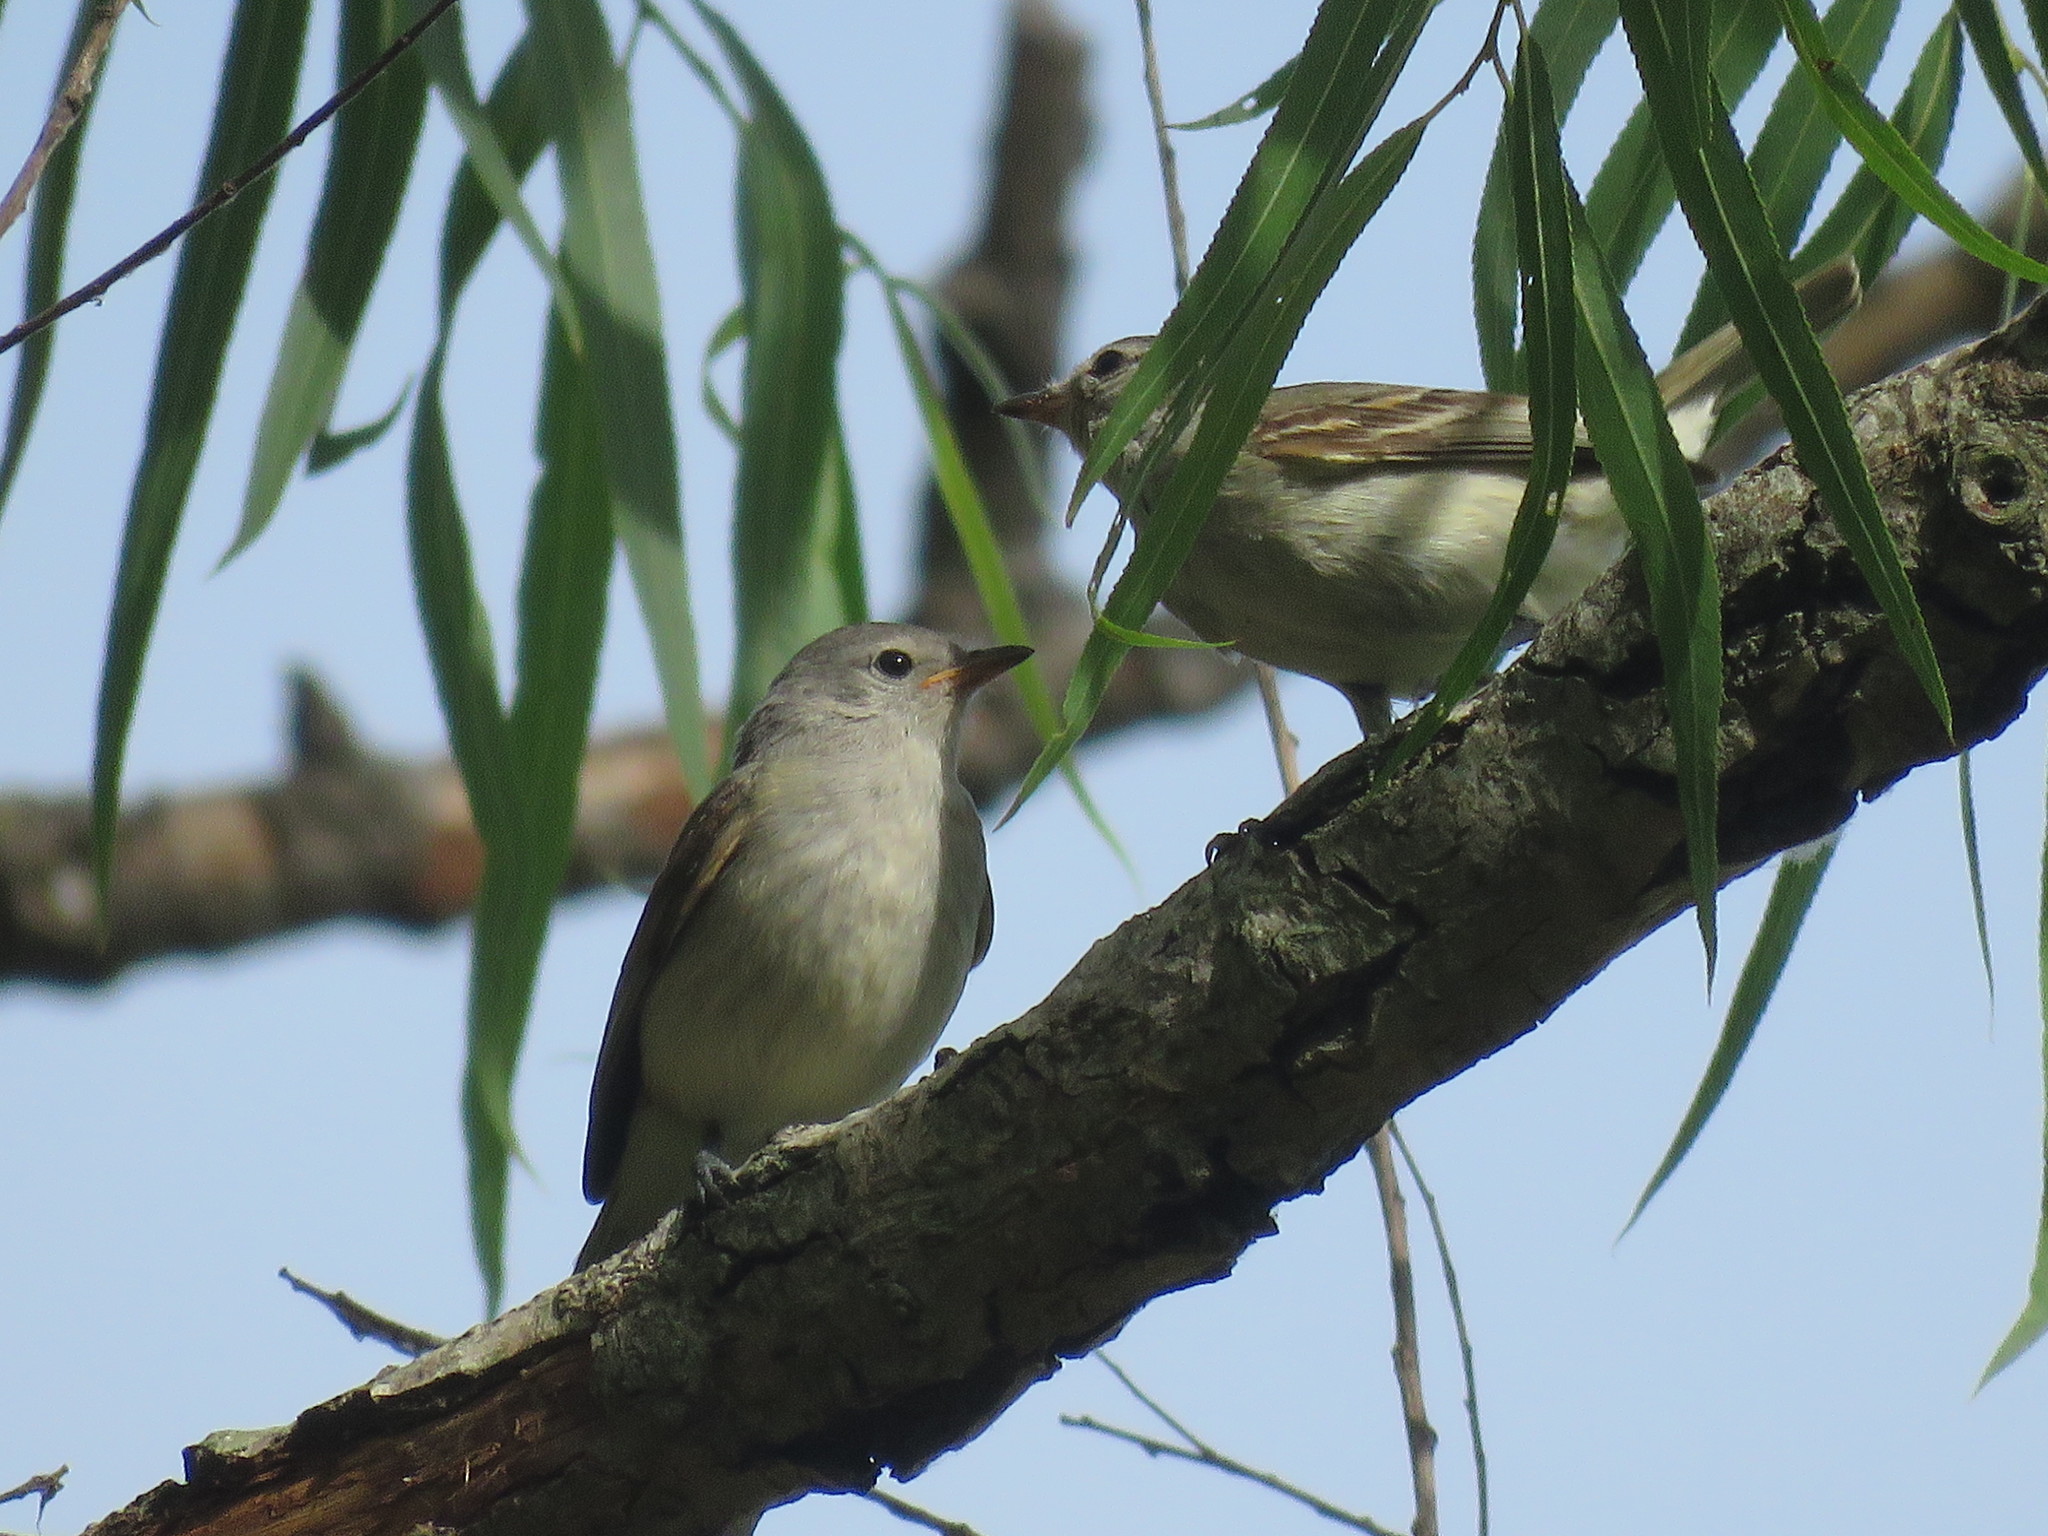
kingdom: Animalia
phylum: Chordata
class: Aves
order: Passeriformes
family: Tyrannidae
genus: Camptostoma
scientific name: Camptostoma obsoletum
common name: Southern beardless-tyrannulet
